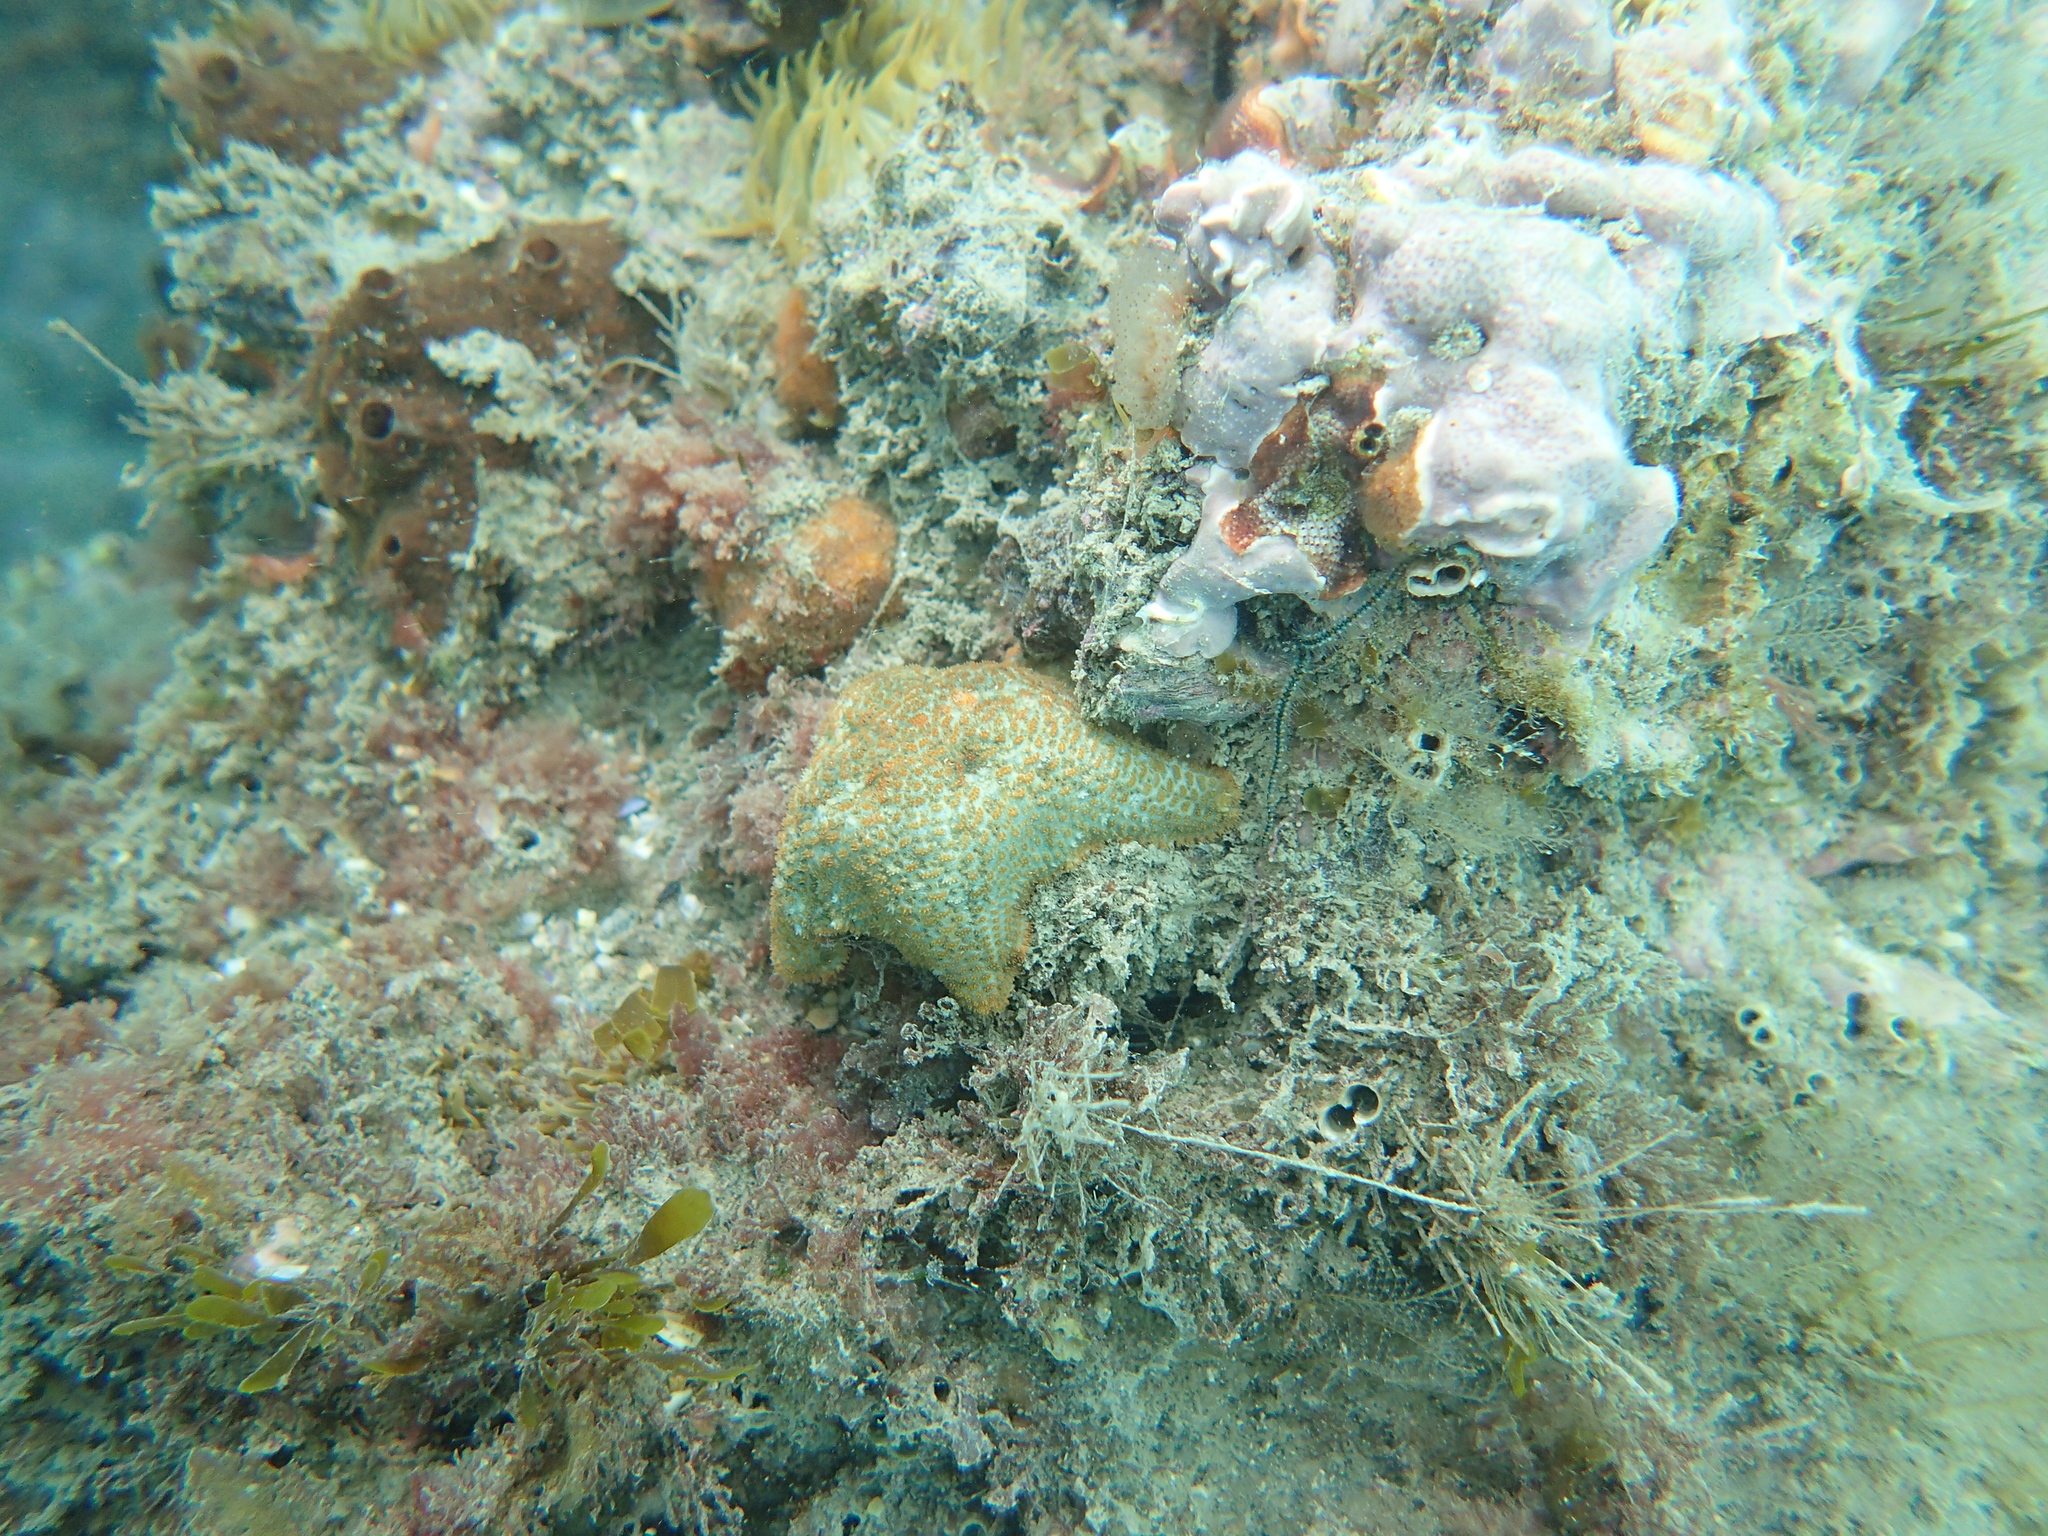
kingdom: Animalia
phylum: Echinodermata
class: Asteroidea
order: Valvatida
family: Asterinidae
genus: Asterina
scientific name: Asterina gibbosa
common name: Cushion star
